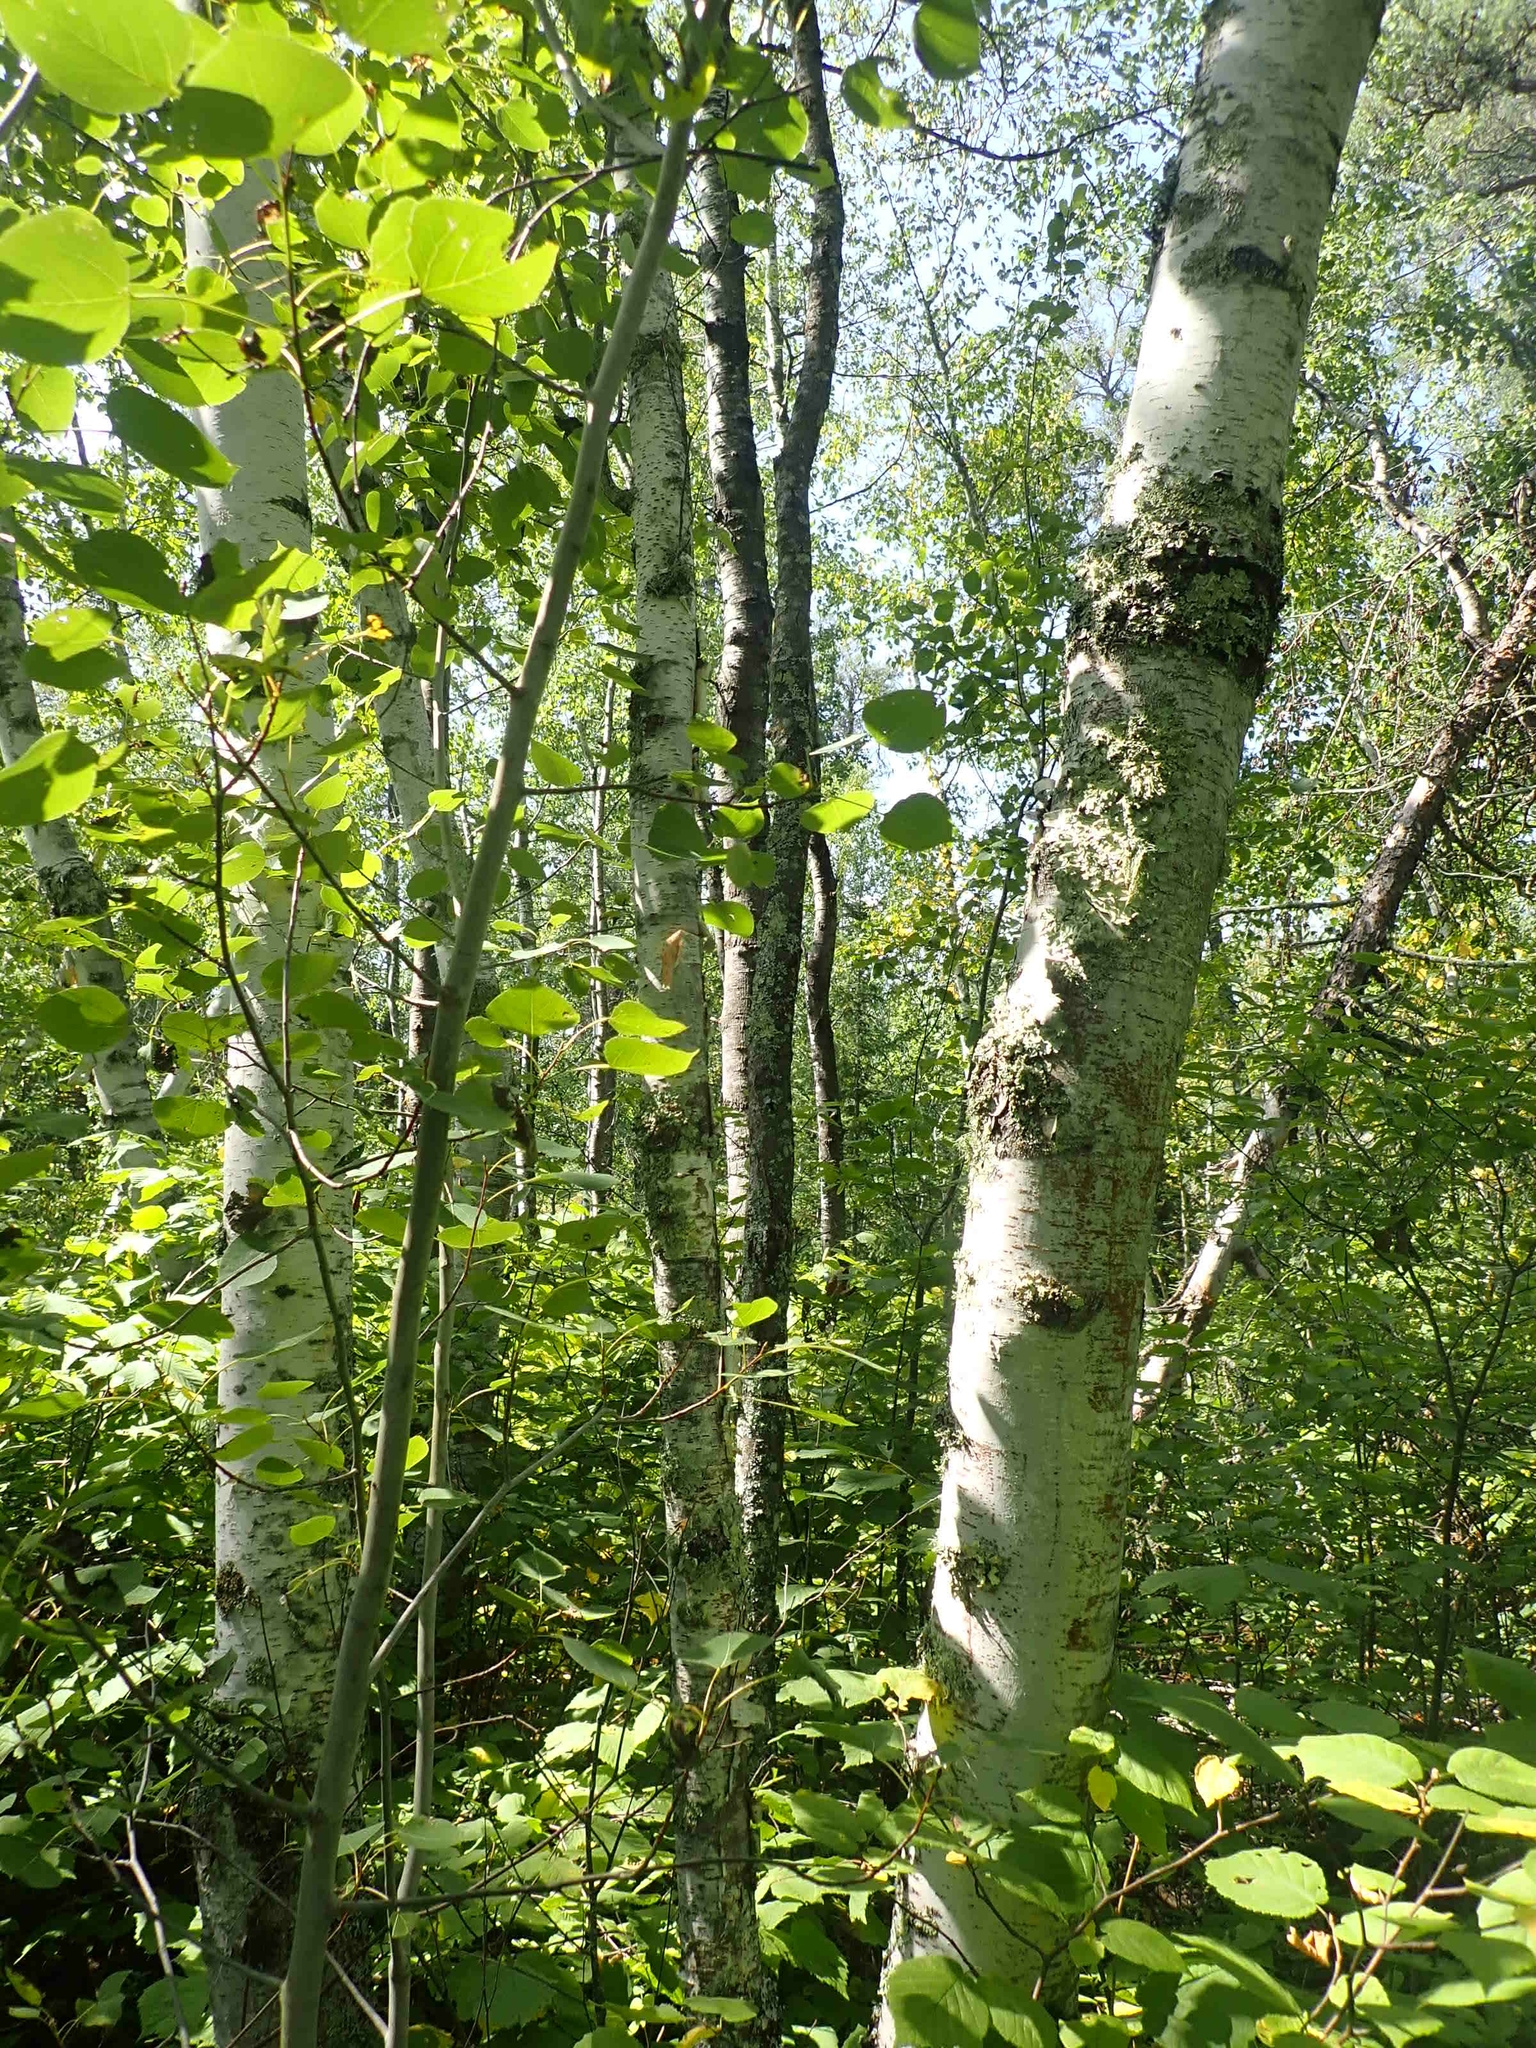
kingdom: Plantae
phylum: Tracheophyta
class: Magnoliopsida
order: Fagales
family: Betulaceae
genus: Betula
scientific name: Betula papyrifera
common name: Paper birch
